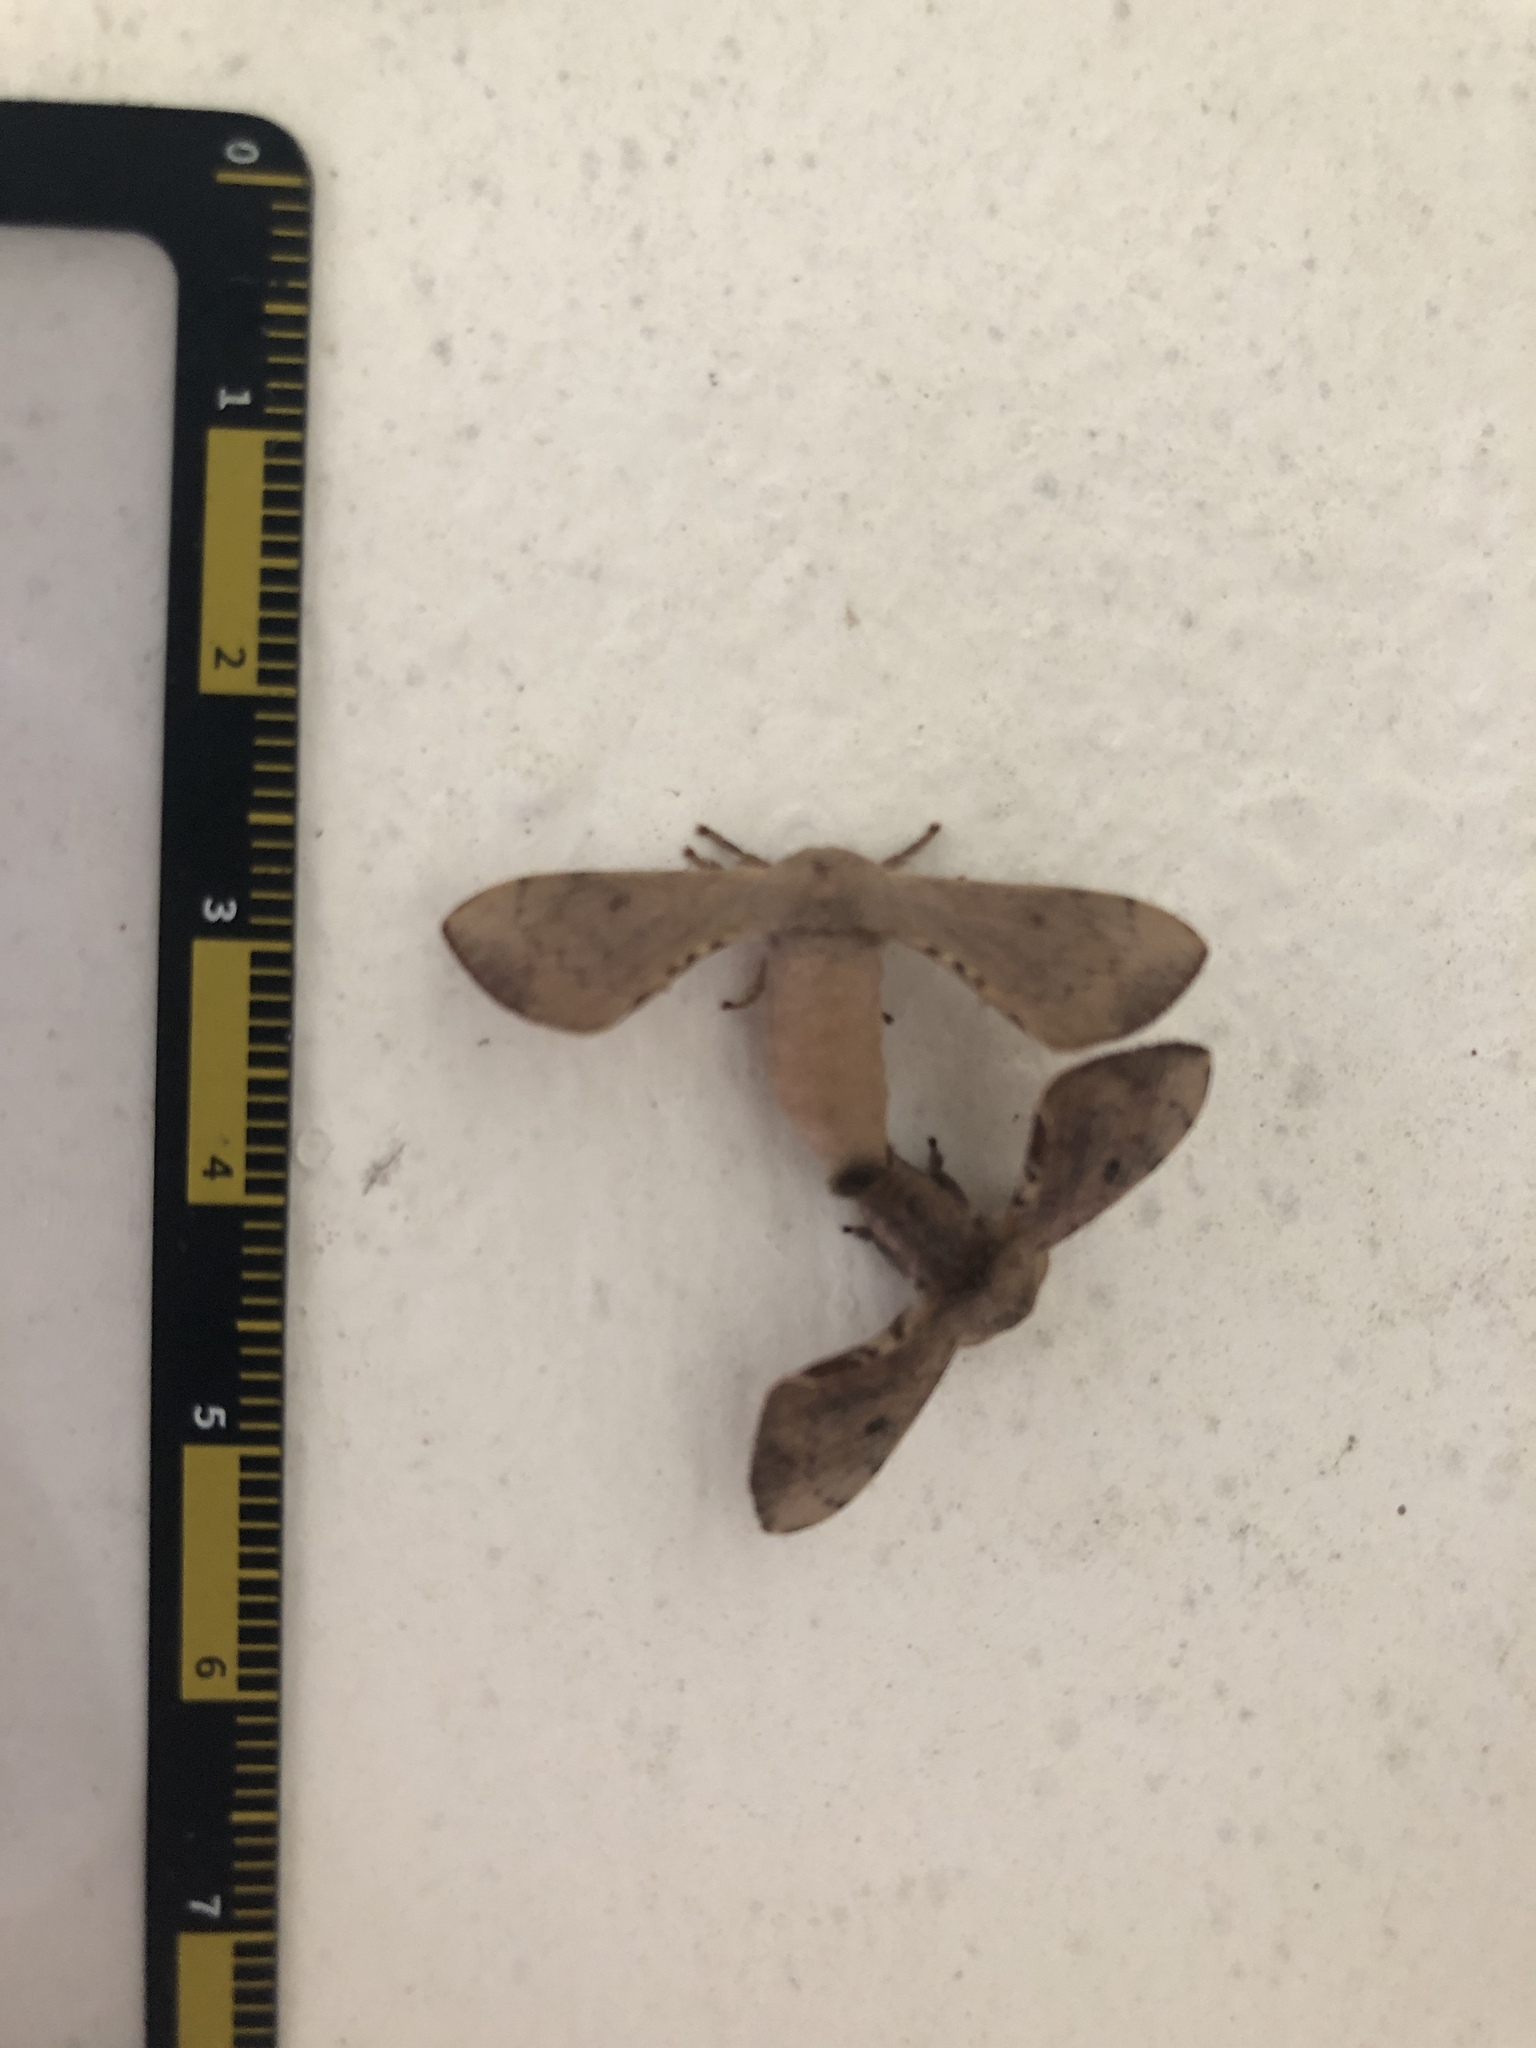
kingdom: Animalia
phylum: Arthropoda
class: Insecta
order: Lepidoptera
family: Bombycidae
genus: Trilocha
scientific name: Trilocha varians
